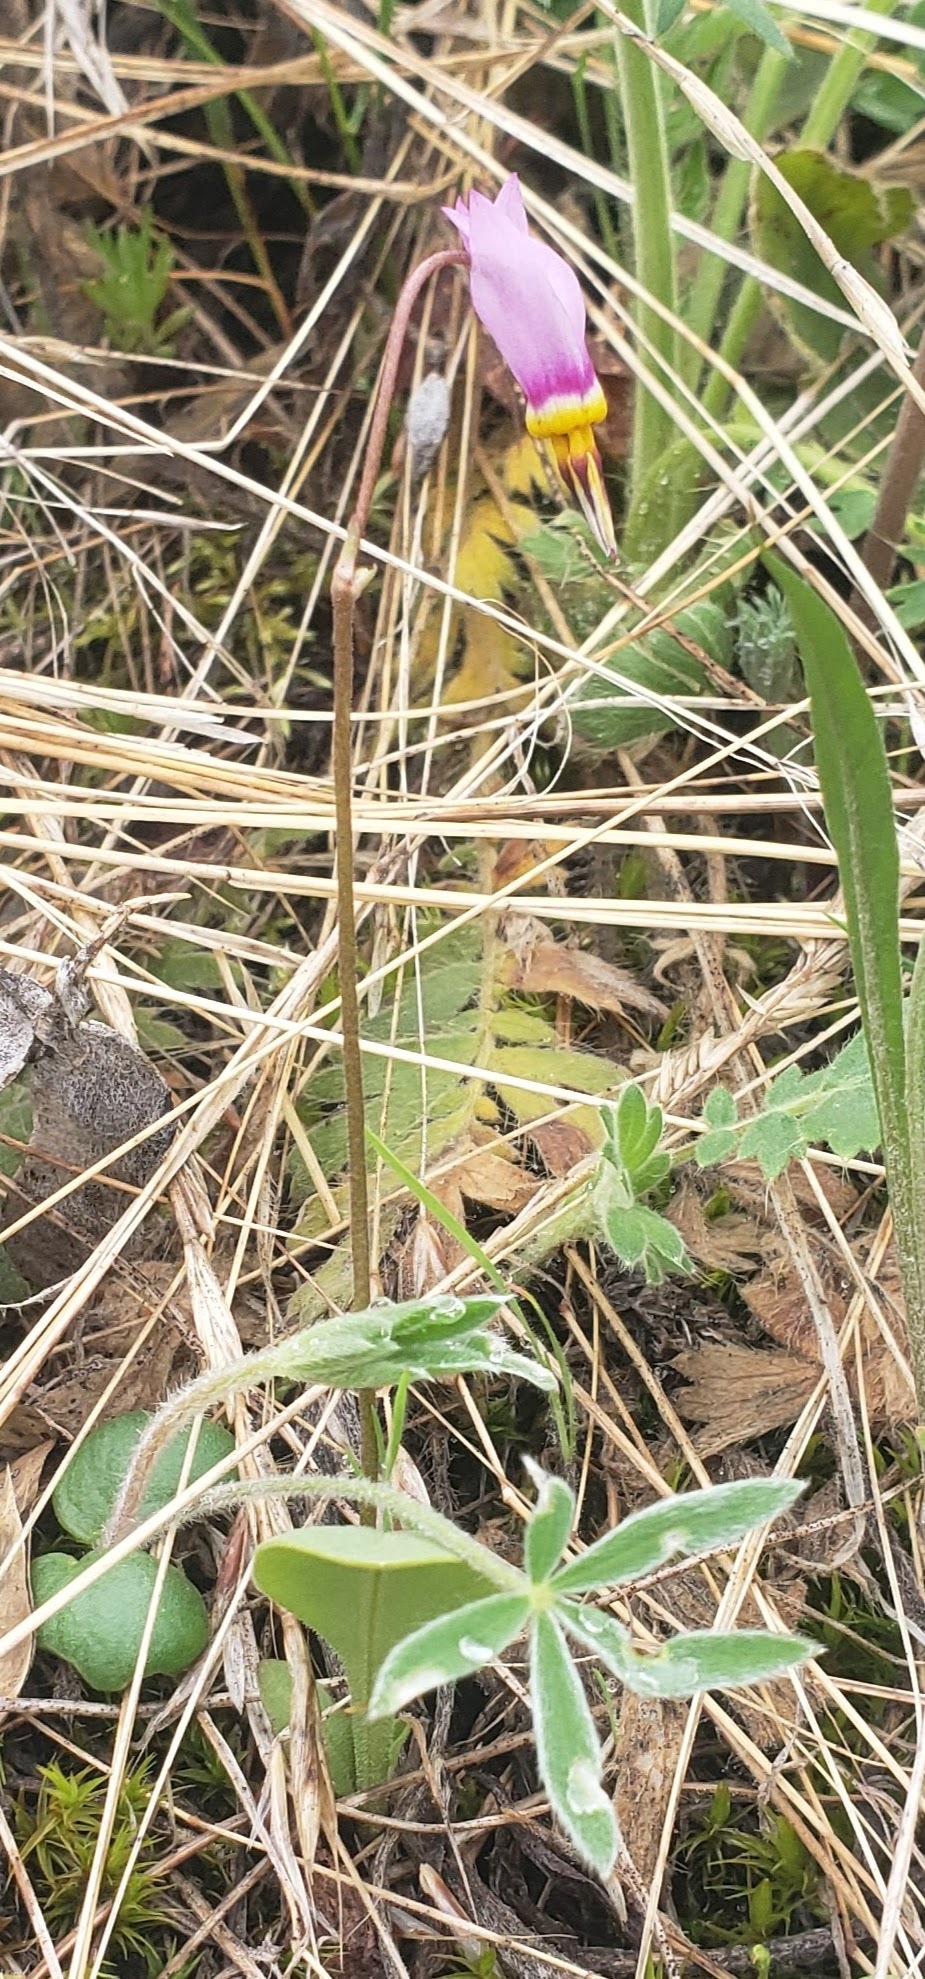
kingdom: Plantae
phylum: Tracheophyta
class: Magnoliopsida
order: Ericales
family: Primulaceae
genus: Dodecatheon
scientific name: Dodecatheon pulchellum
